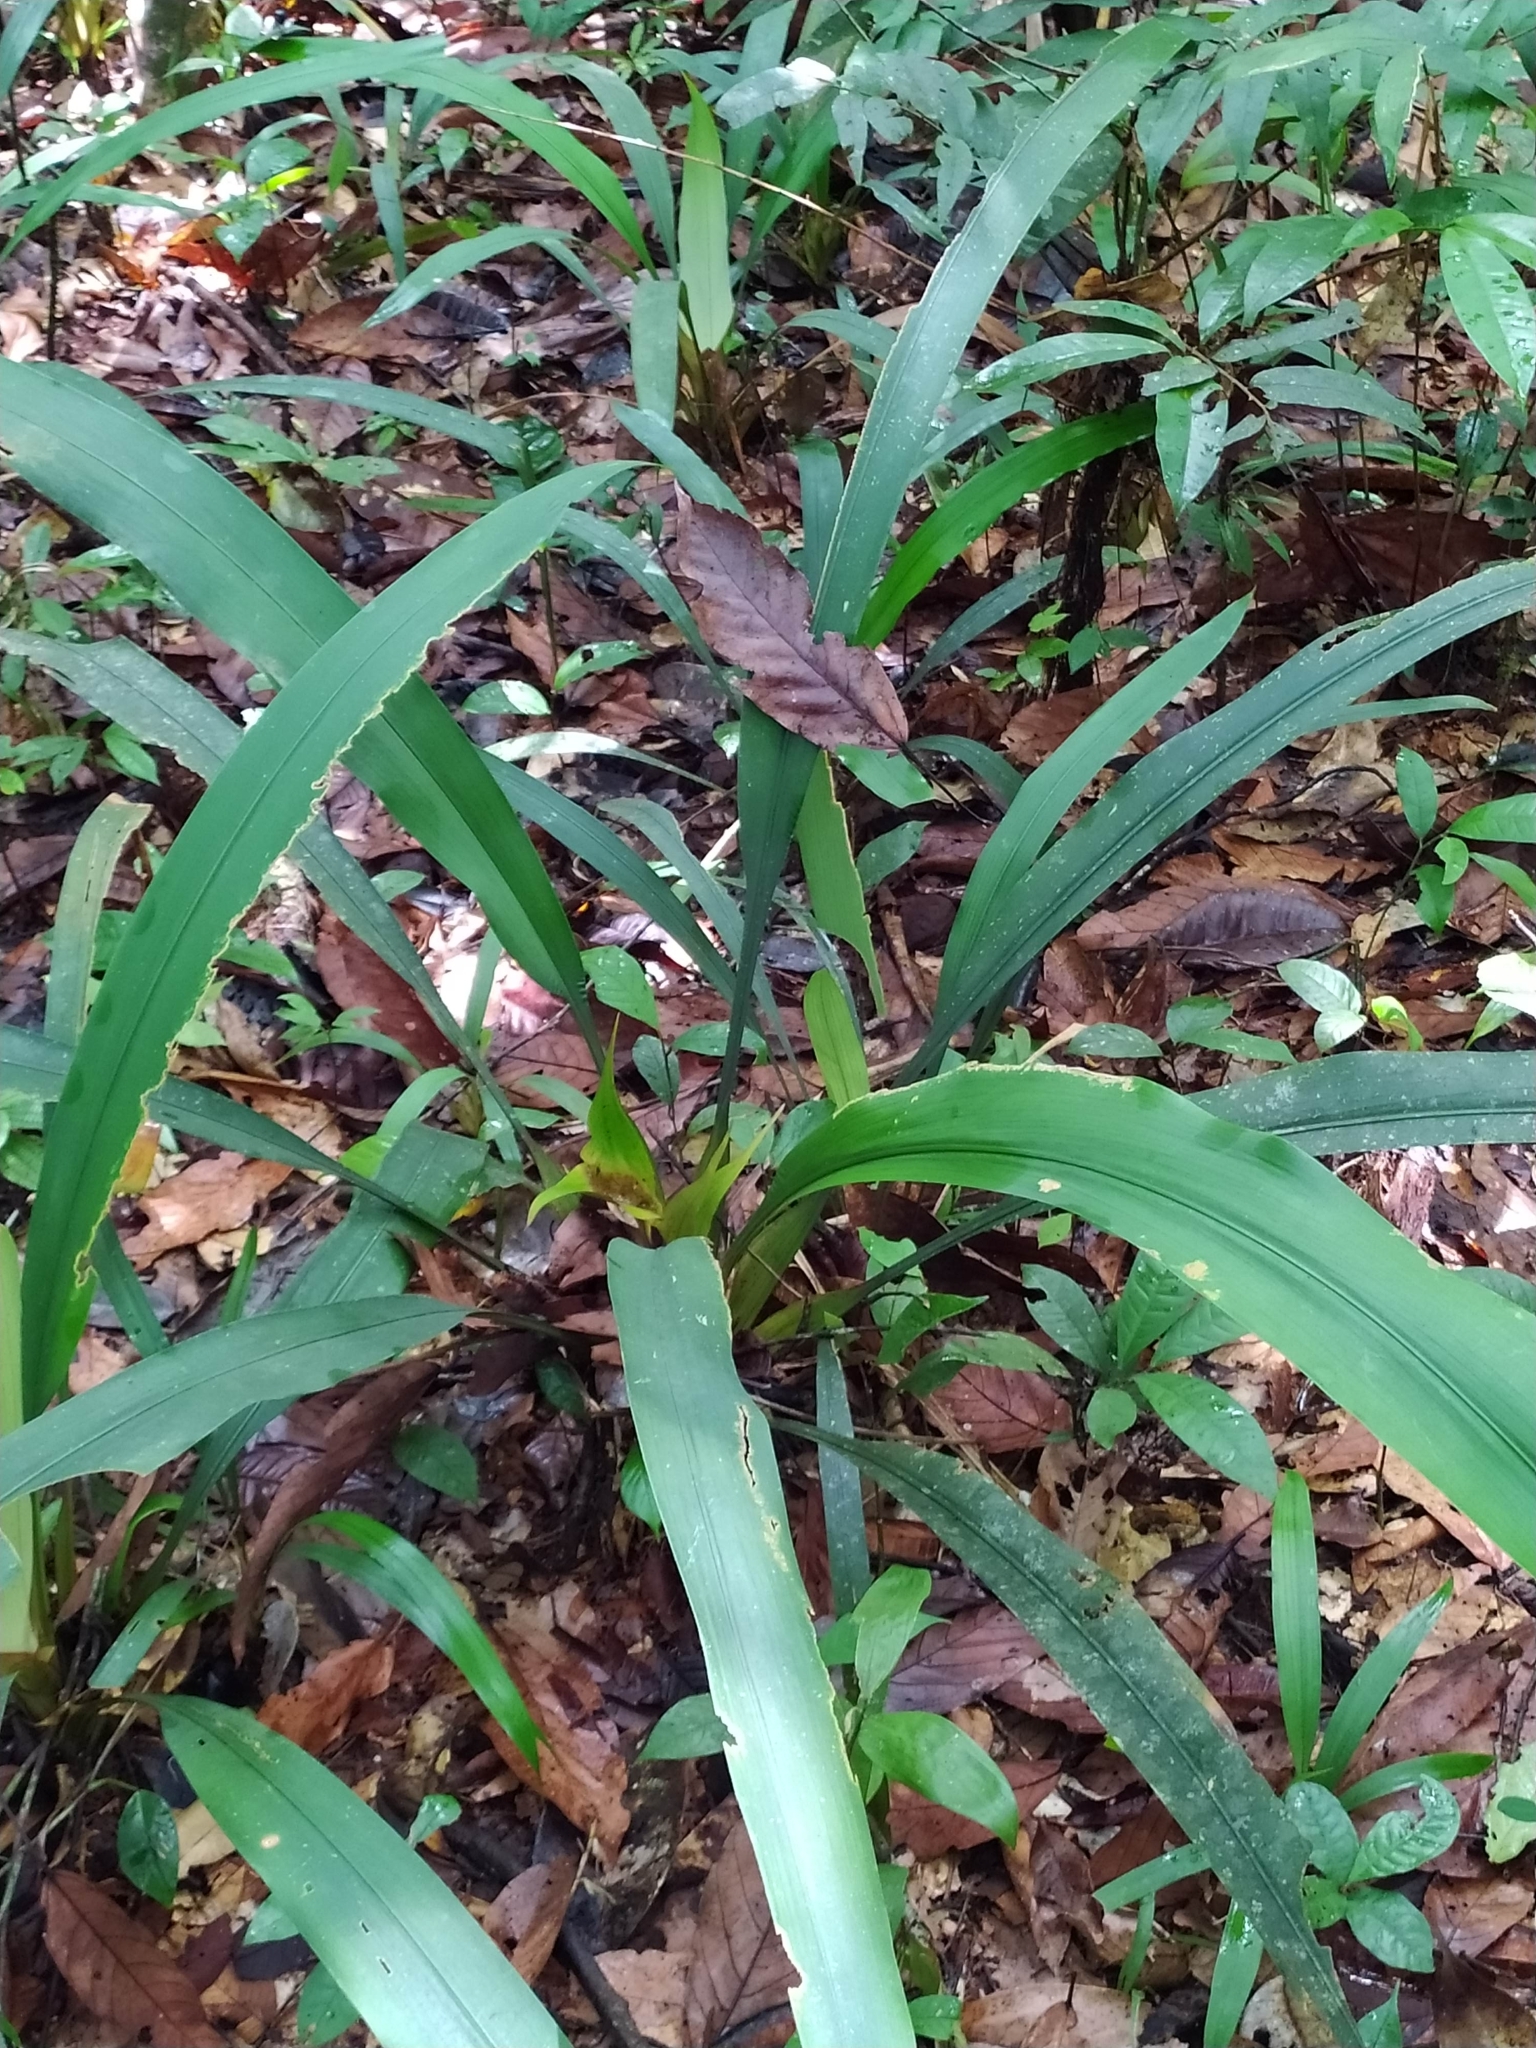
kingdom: Plantae
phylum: Tracheophyta
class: Liliopsida
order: Poales
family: Rapateaceae
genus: Rapatea
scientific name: Rapatea paludosa
